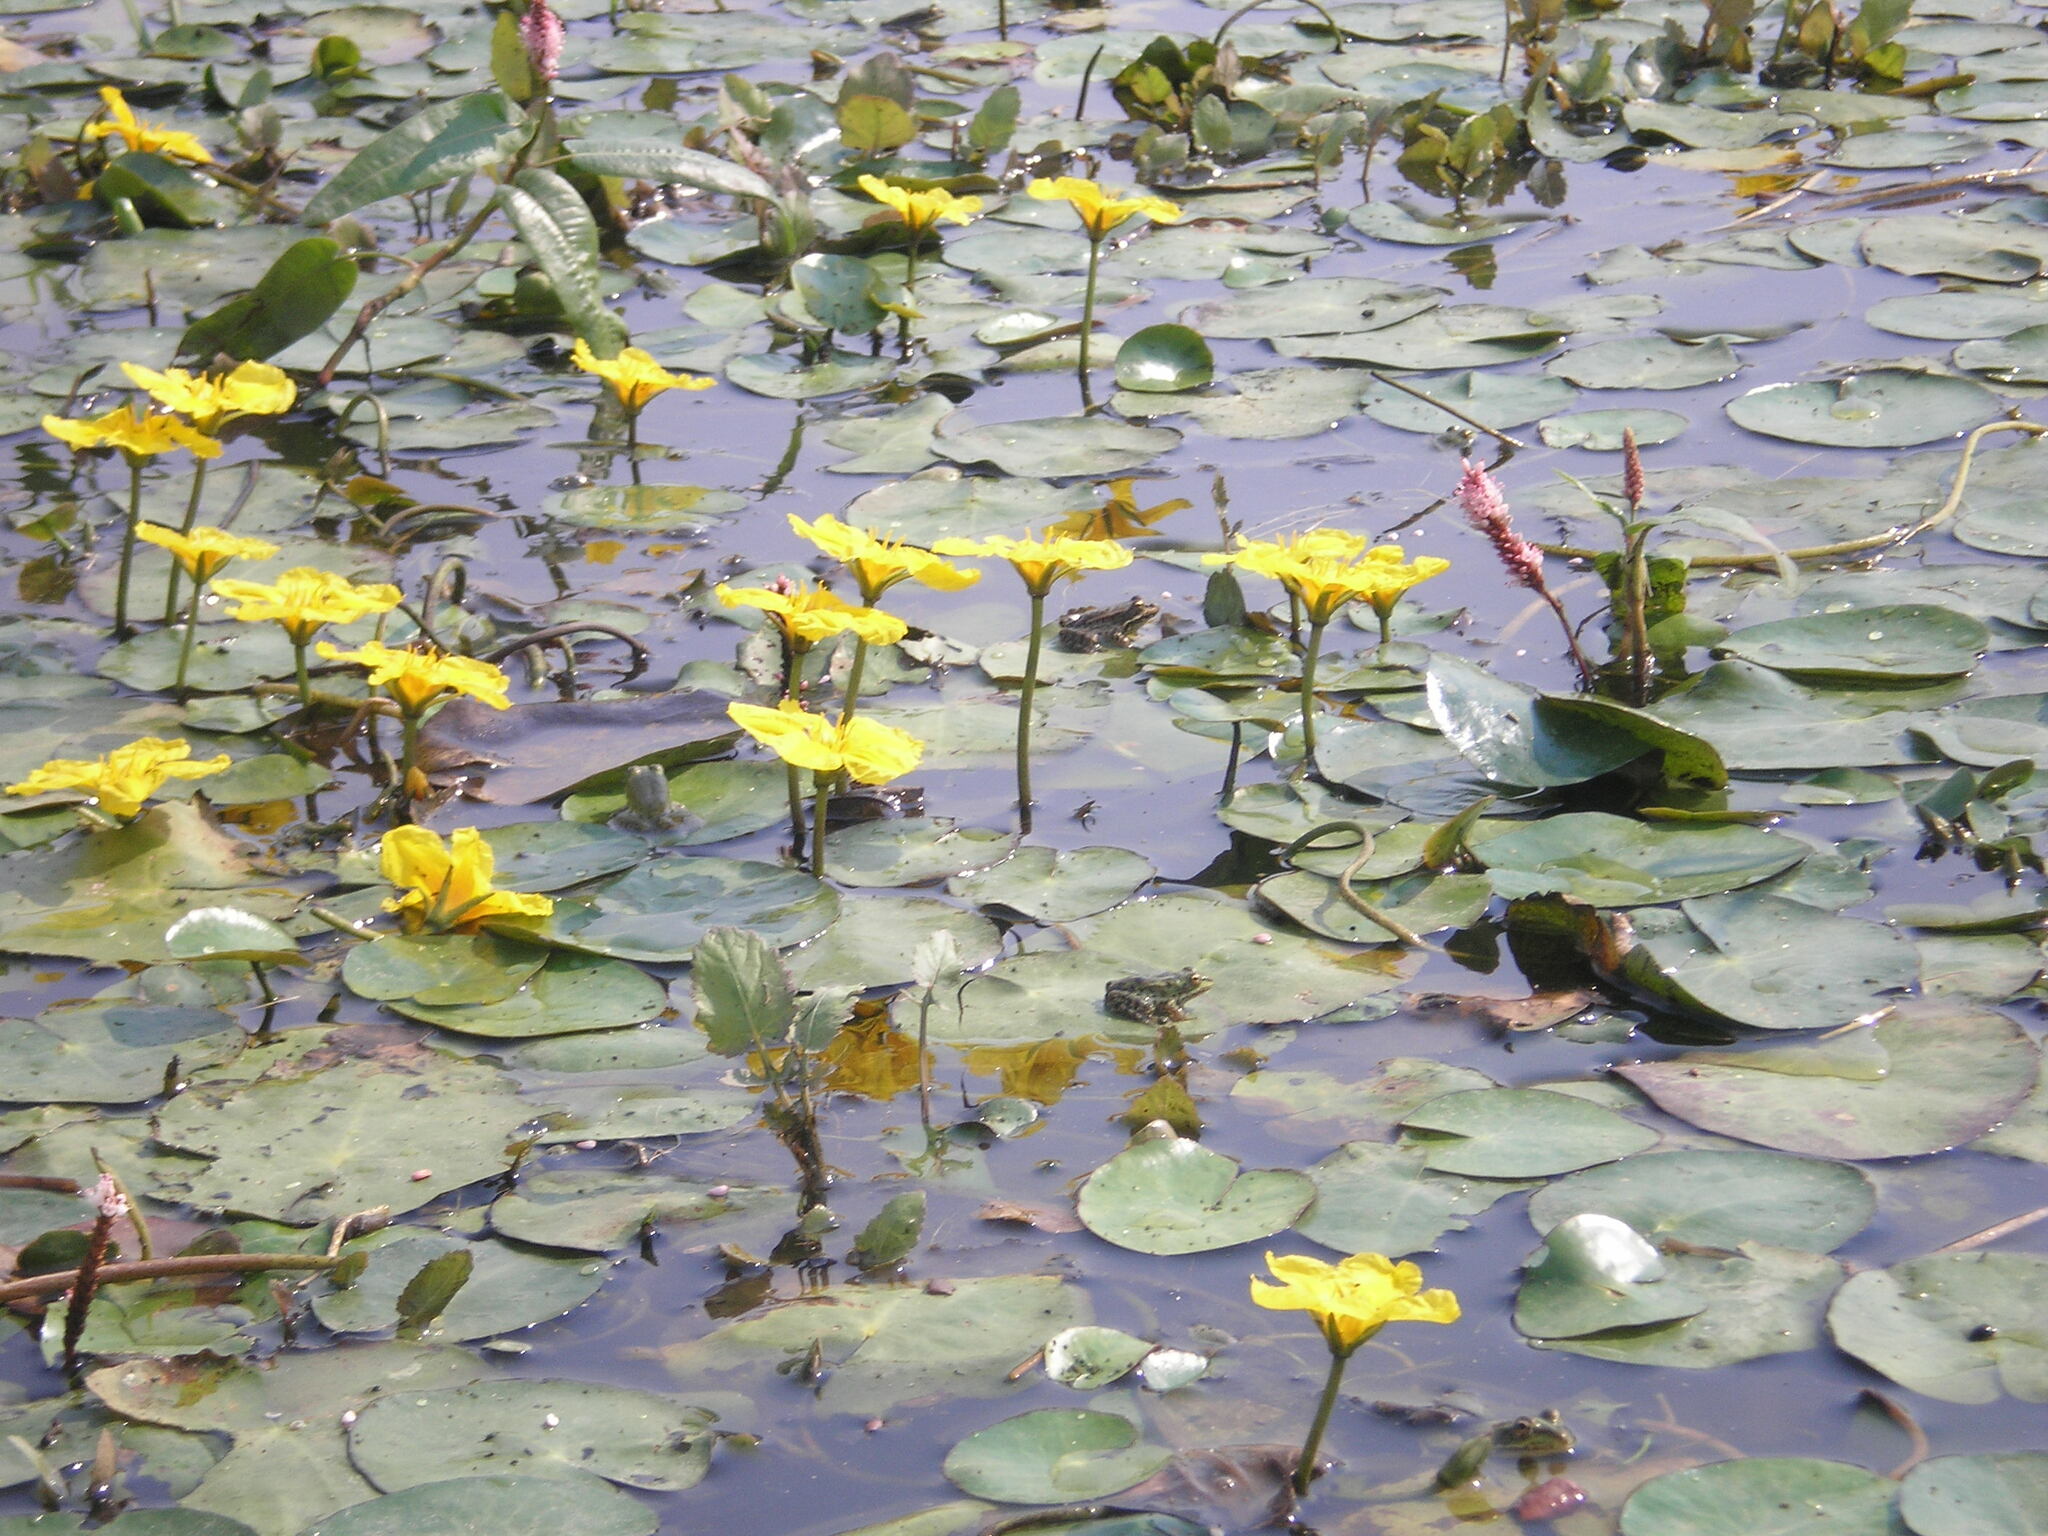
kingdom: Plantae
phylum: Tracheophyta
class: Magnoliopsida
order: Asterales
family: Menyanthaceae
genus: Nymphoides
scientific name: Nymphoides peltata
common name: Fringed water-lily
